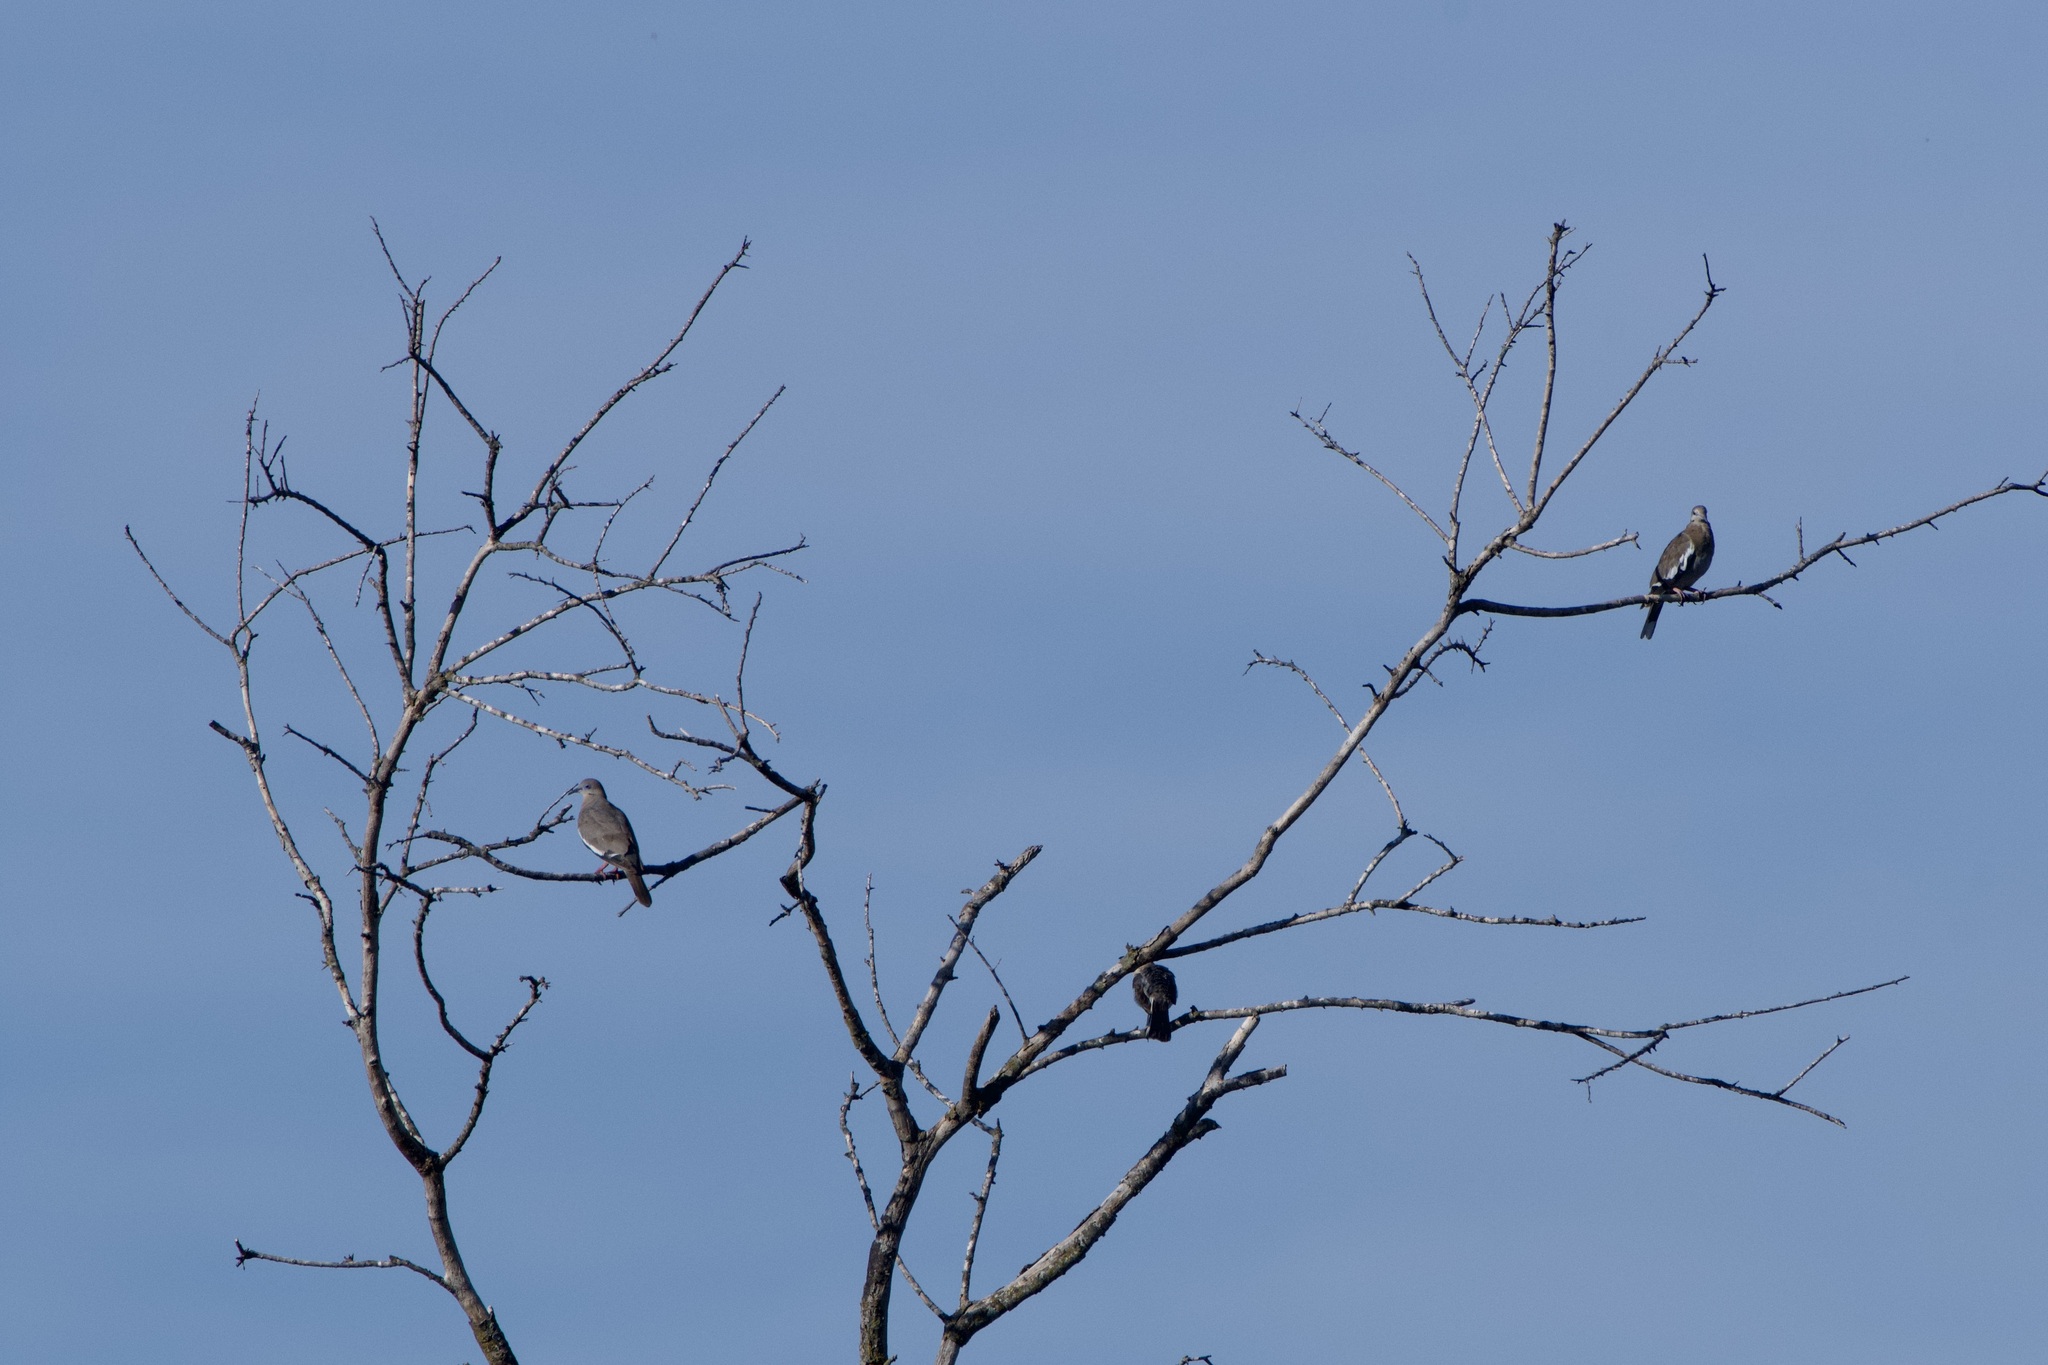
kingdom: Animalia
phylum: Chordata
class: Aves
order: Columbiformes
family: Columbidae
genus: Zenaida
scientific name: Zenaida asiatica
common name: White-winged dove
